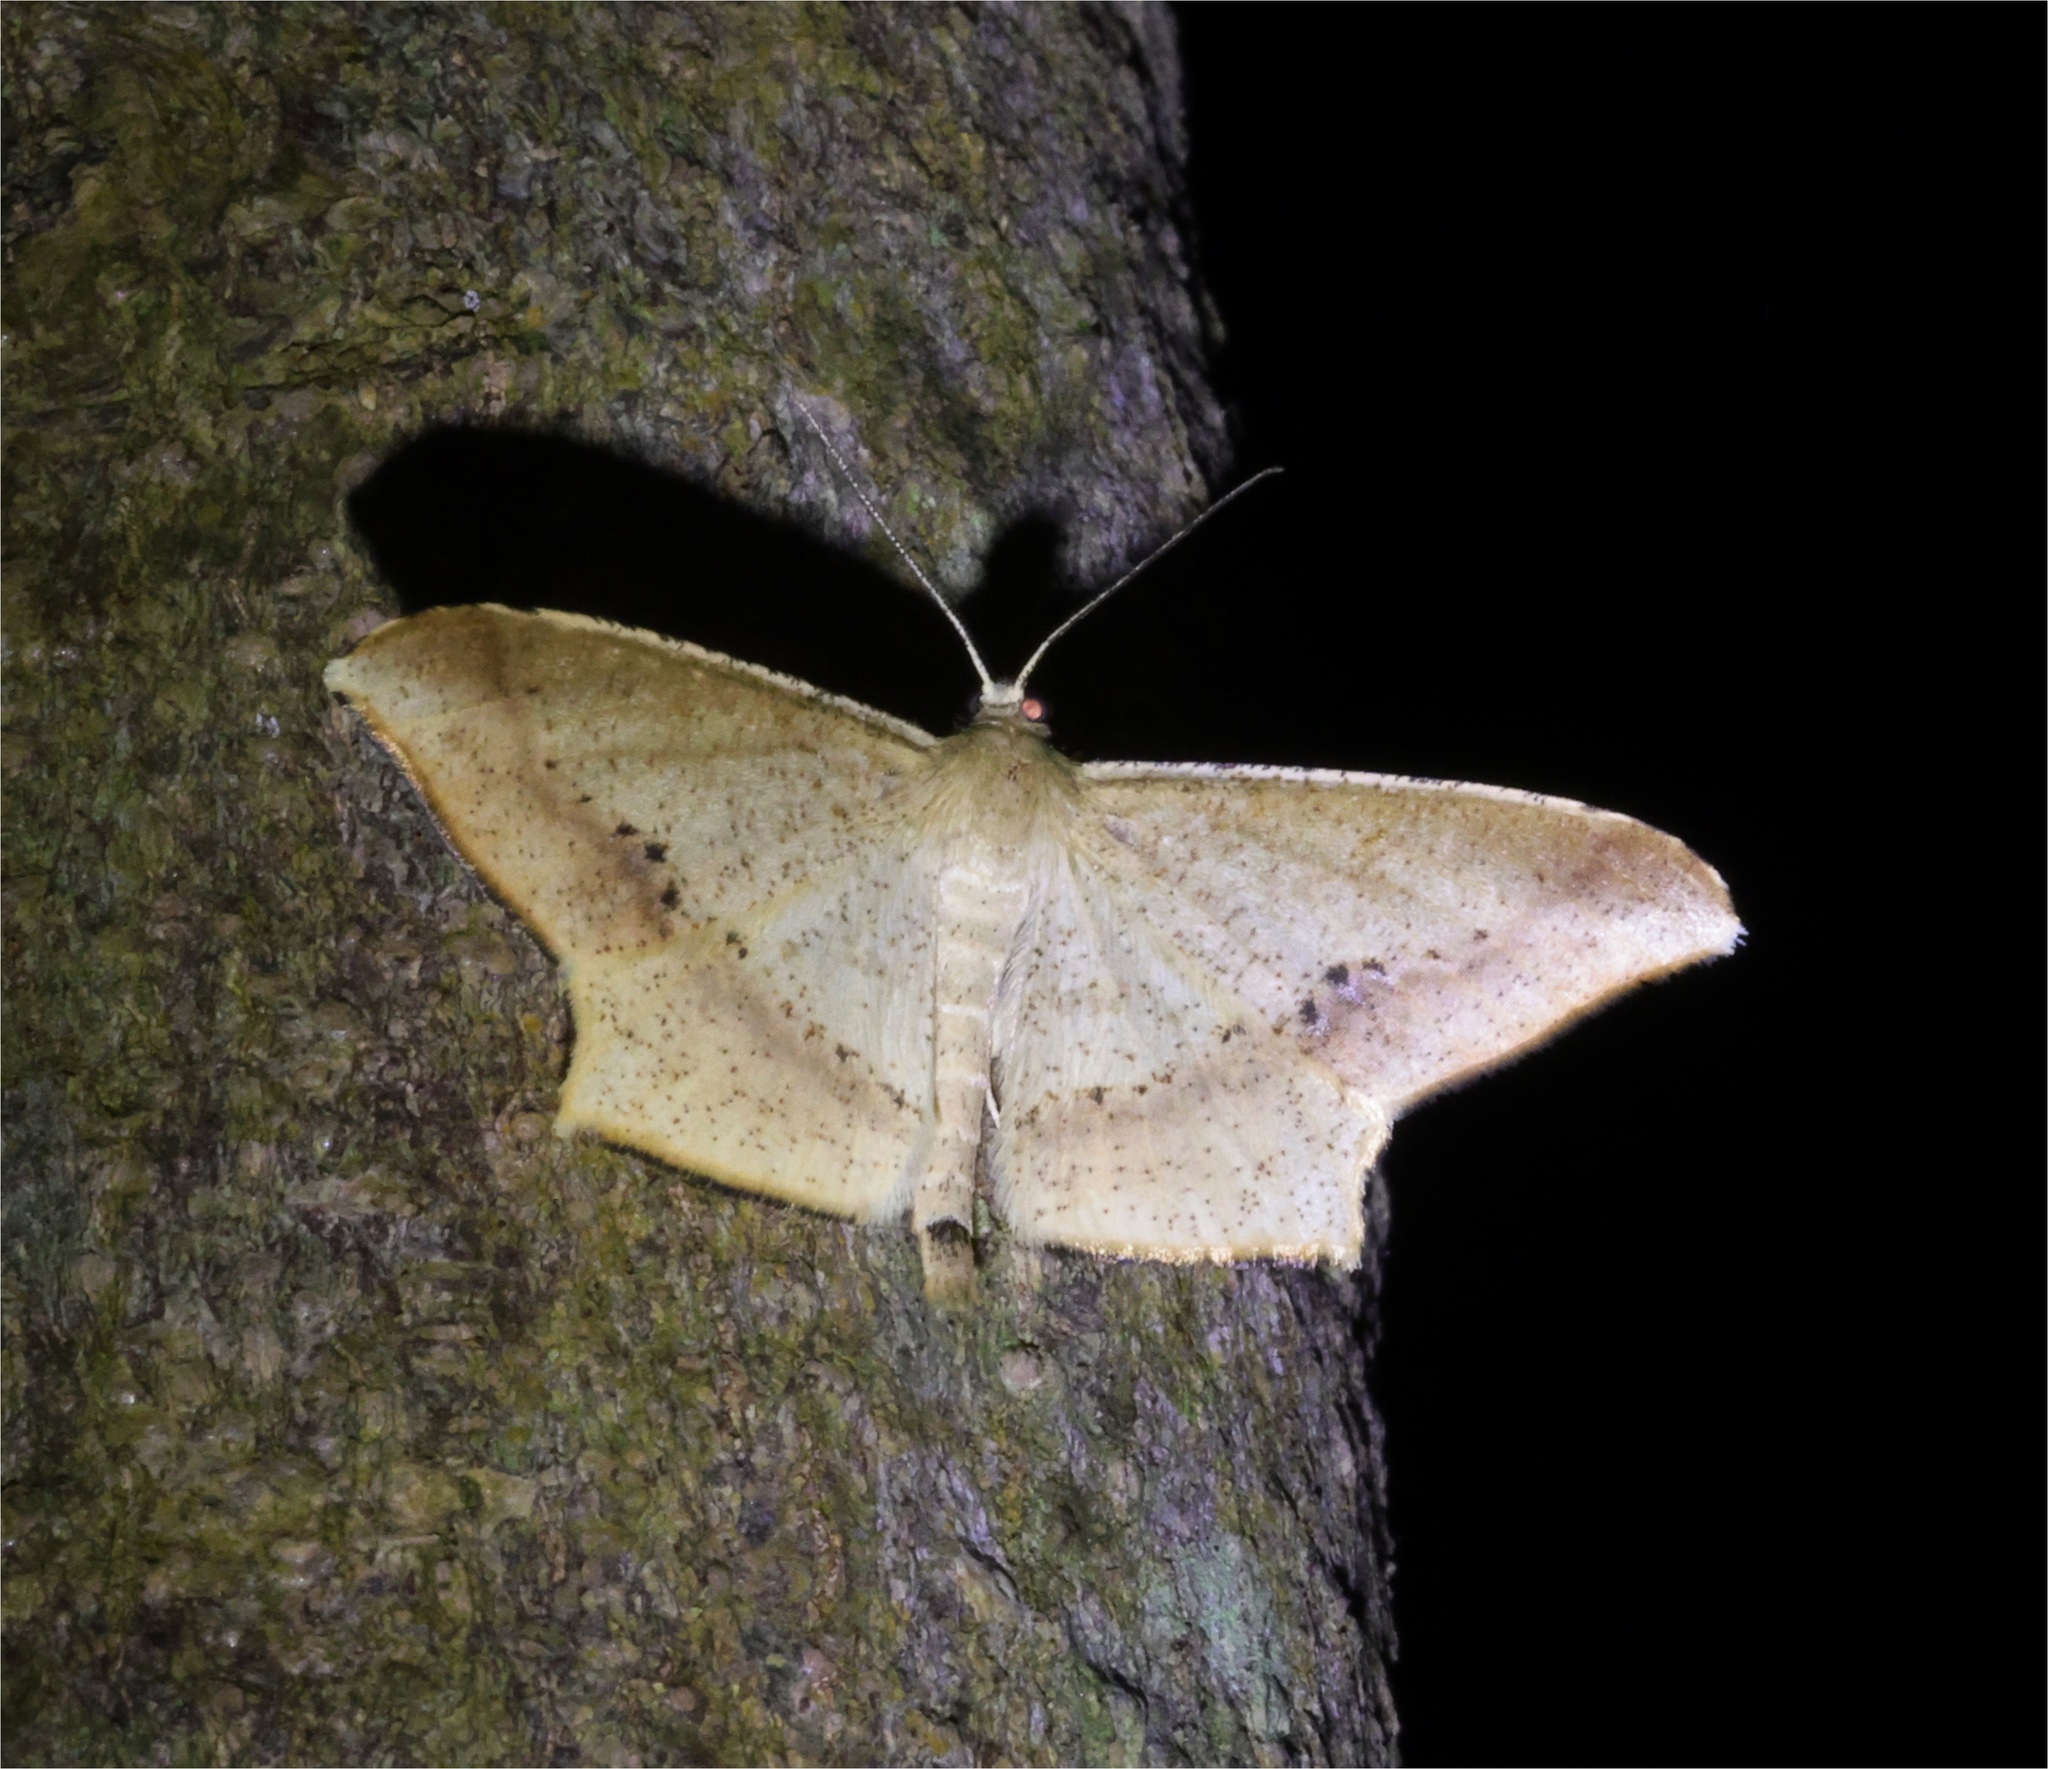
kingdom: Animalia
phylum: Arthropoda
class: Insecta
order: Lepidoptera
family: Geometridae
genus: Krananda
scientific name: Krananda falcata
